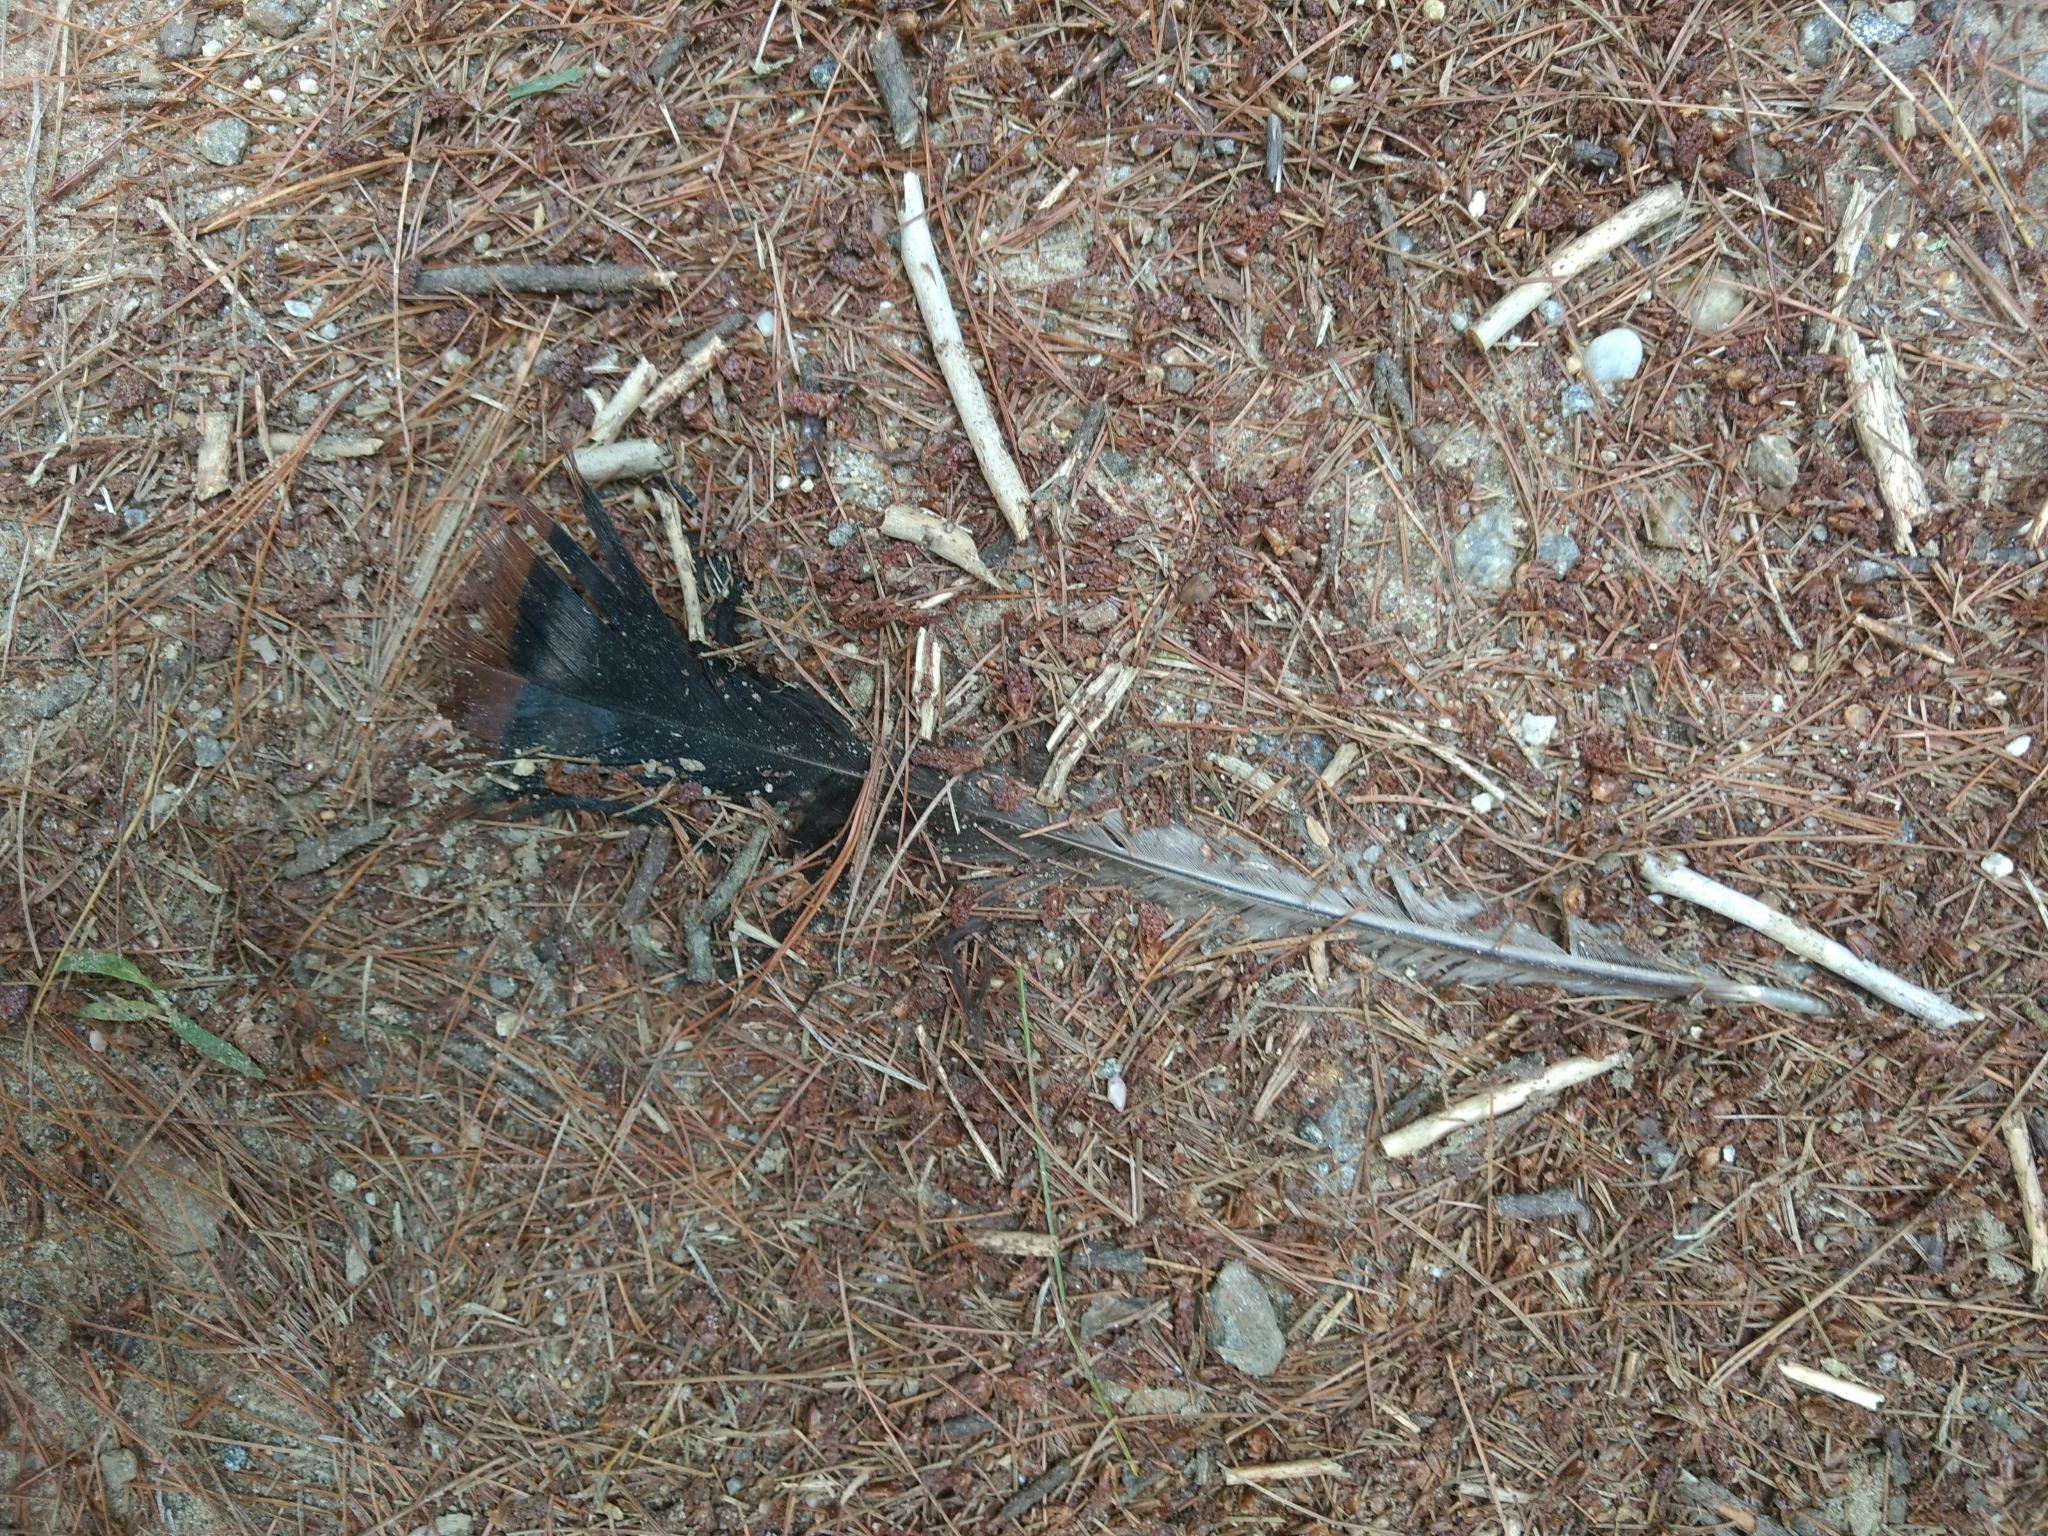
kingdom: Animalia
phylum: Chordata
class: Aves
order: Galliformes
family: Phasianidae
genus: Meleagris
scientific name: Meleagris gallopavo
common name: Wild turkey
